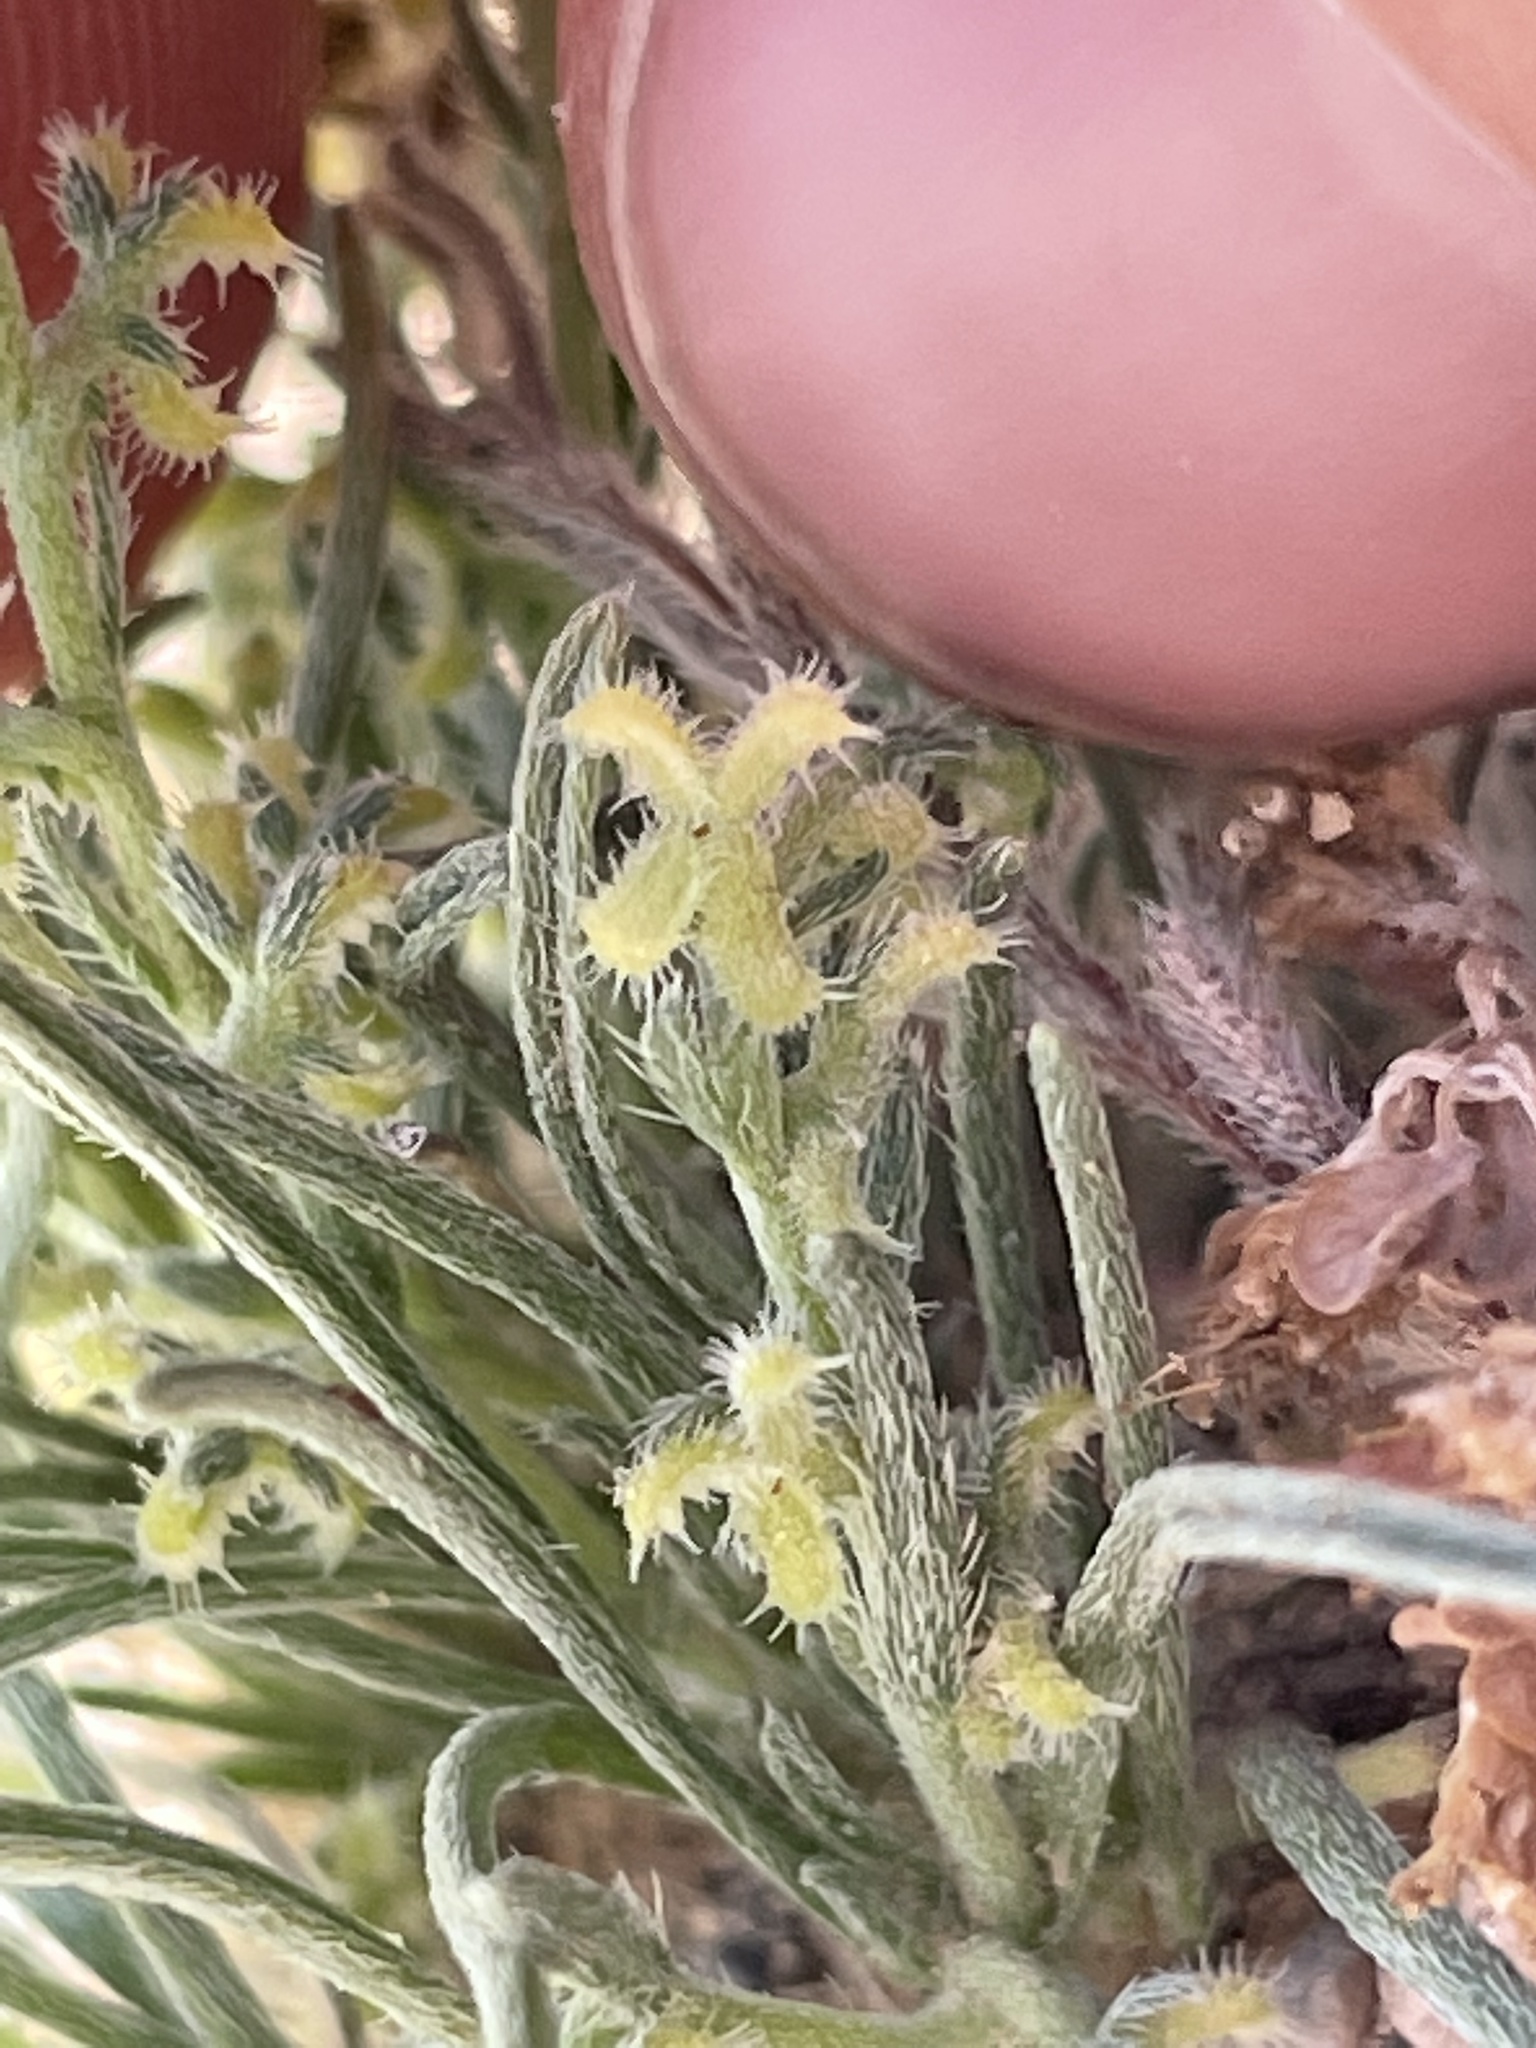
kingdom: Plantae
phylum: Tracheophyta
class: Magnoliopsida
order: Boraginales
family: Boraginaceae
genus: Pectocarya
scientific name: Pectocarya heterocarpa
